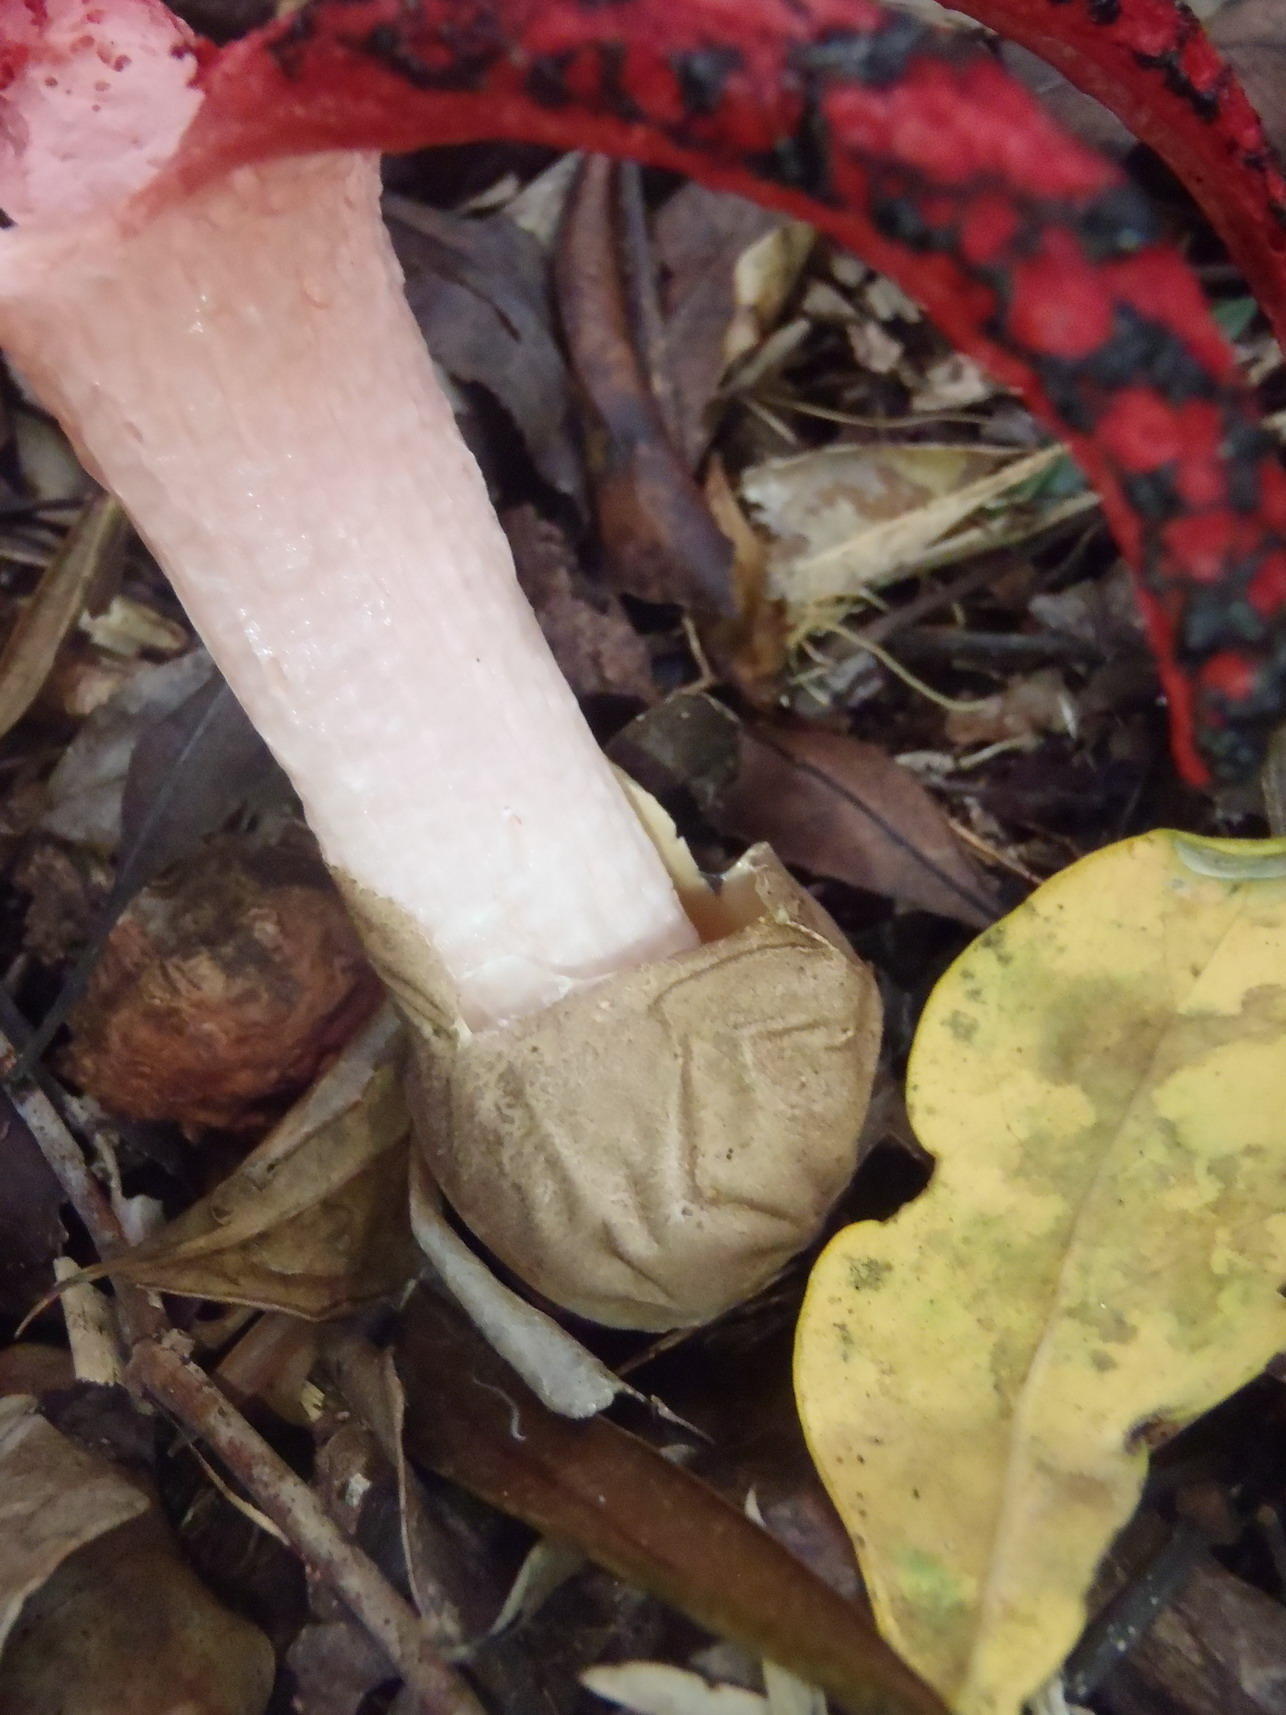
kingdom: Fungi
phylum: Basidiomycota
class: Agaricomycetes
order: Phallales
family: Phallaceae
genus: Clathrus
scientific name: Clathrus archeri
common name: Devil's fingers
